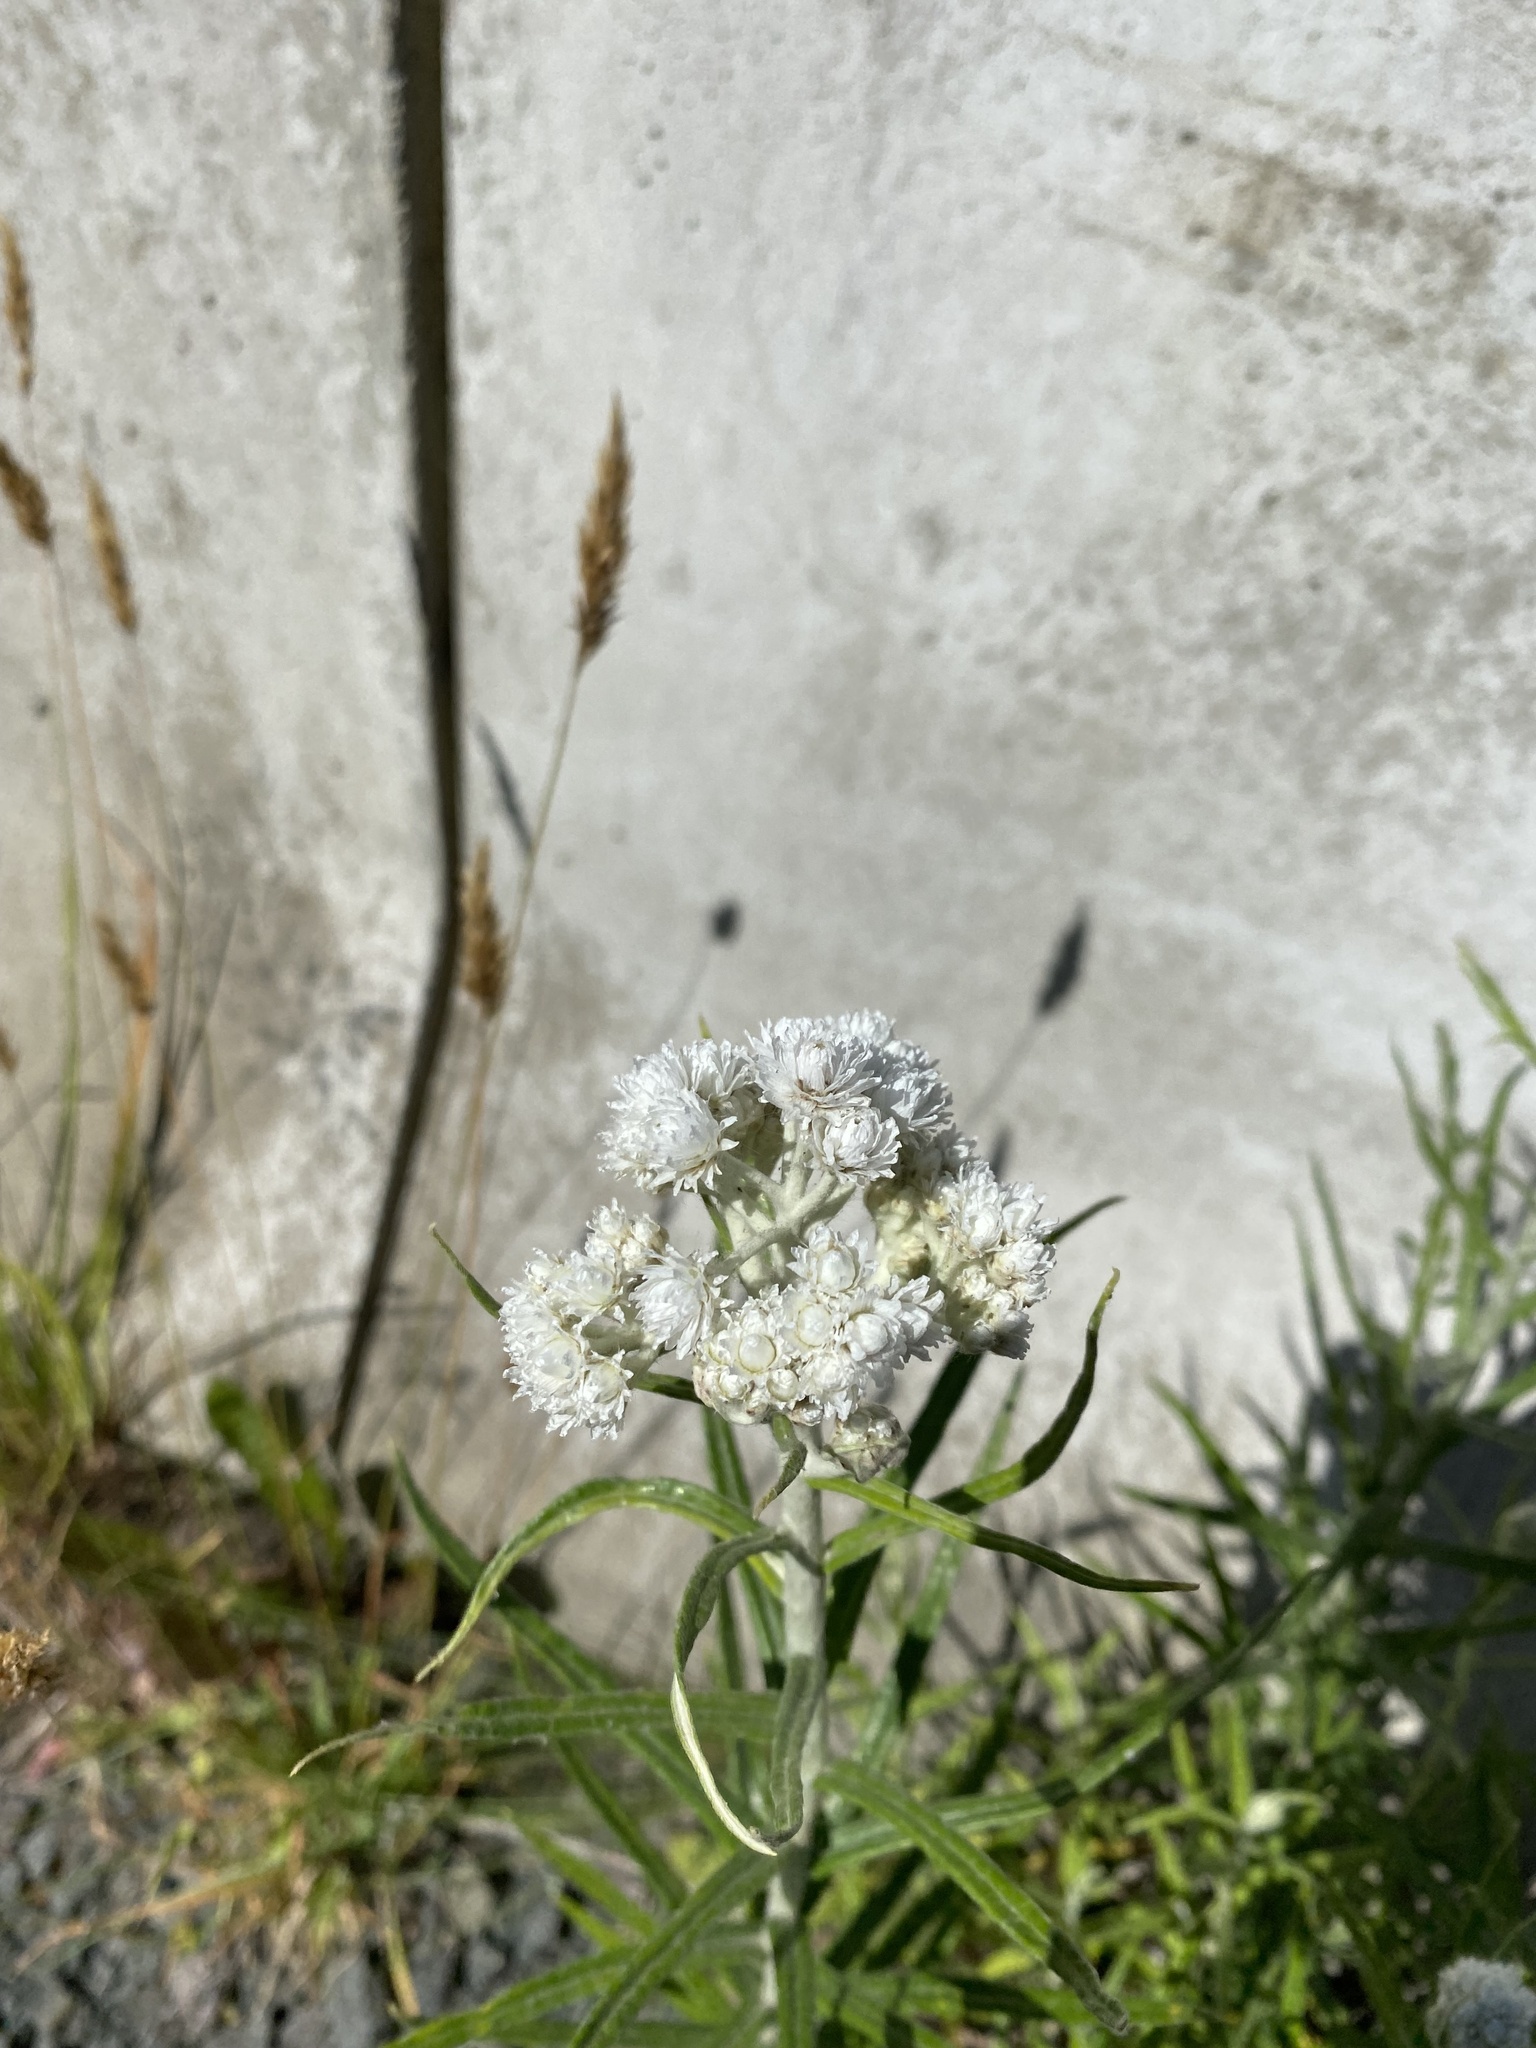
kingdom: Plantae
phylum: Tracheophyta
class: Magnoliopsida
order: Asterales
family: Asteraceae
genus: Anaphalis
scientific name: Anaphalis margaritacea
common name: Pearly everlasting
